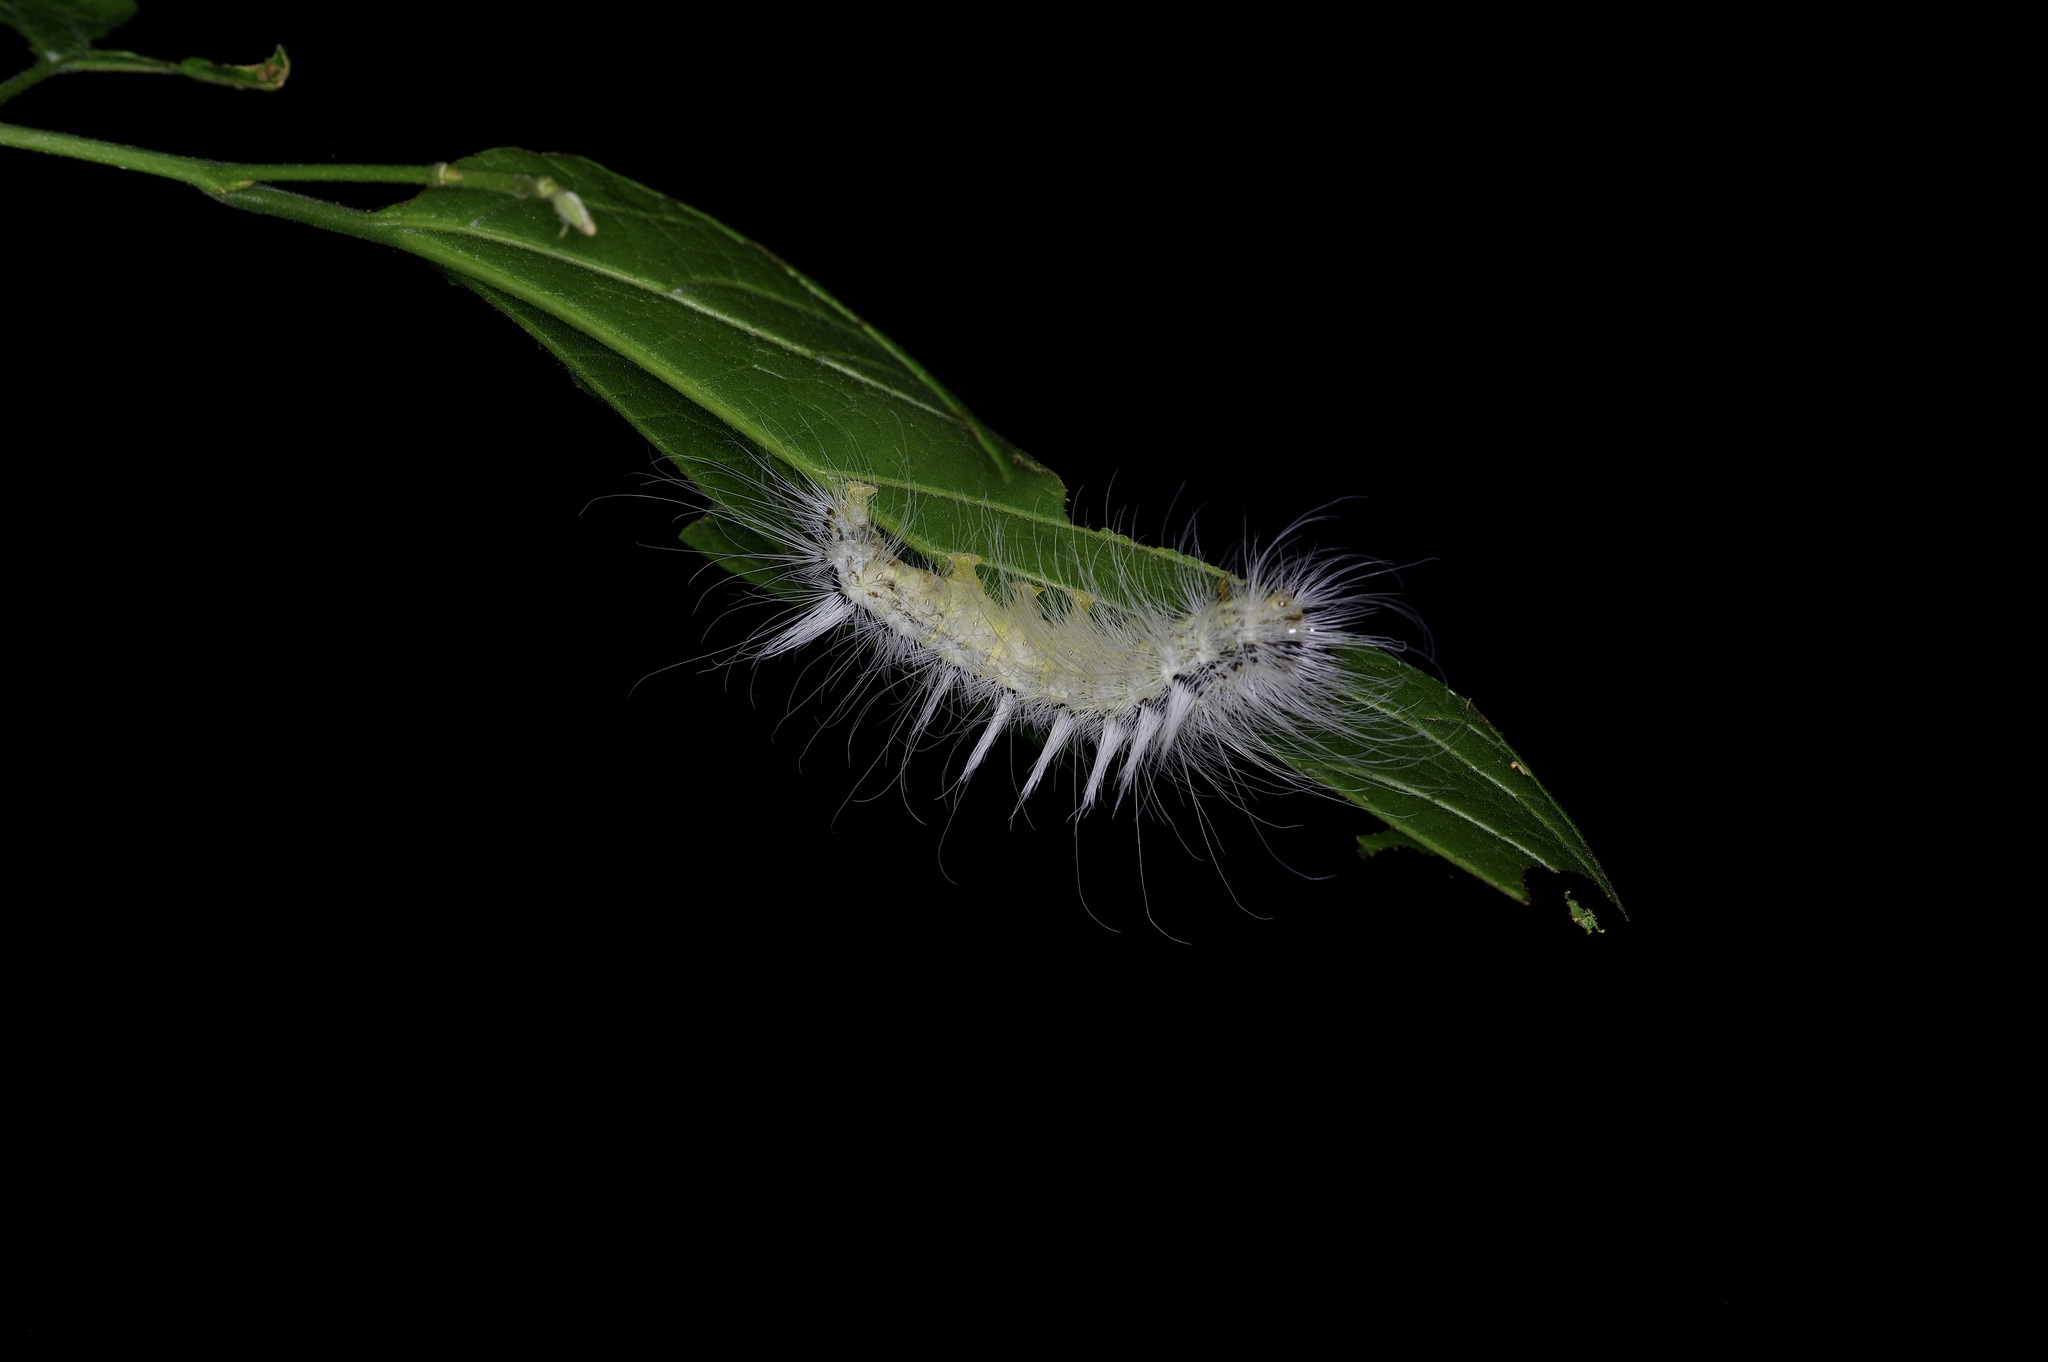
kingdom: Animalia
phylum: Arthropoda
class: Insecta
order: Lepidoptera
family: Noctuidae
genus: Acronicta
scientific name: Acronicta rubricoma
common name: Hackberry dagger
